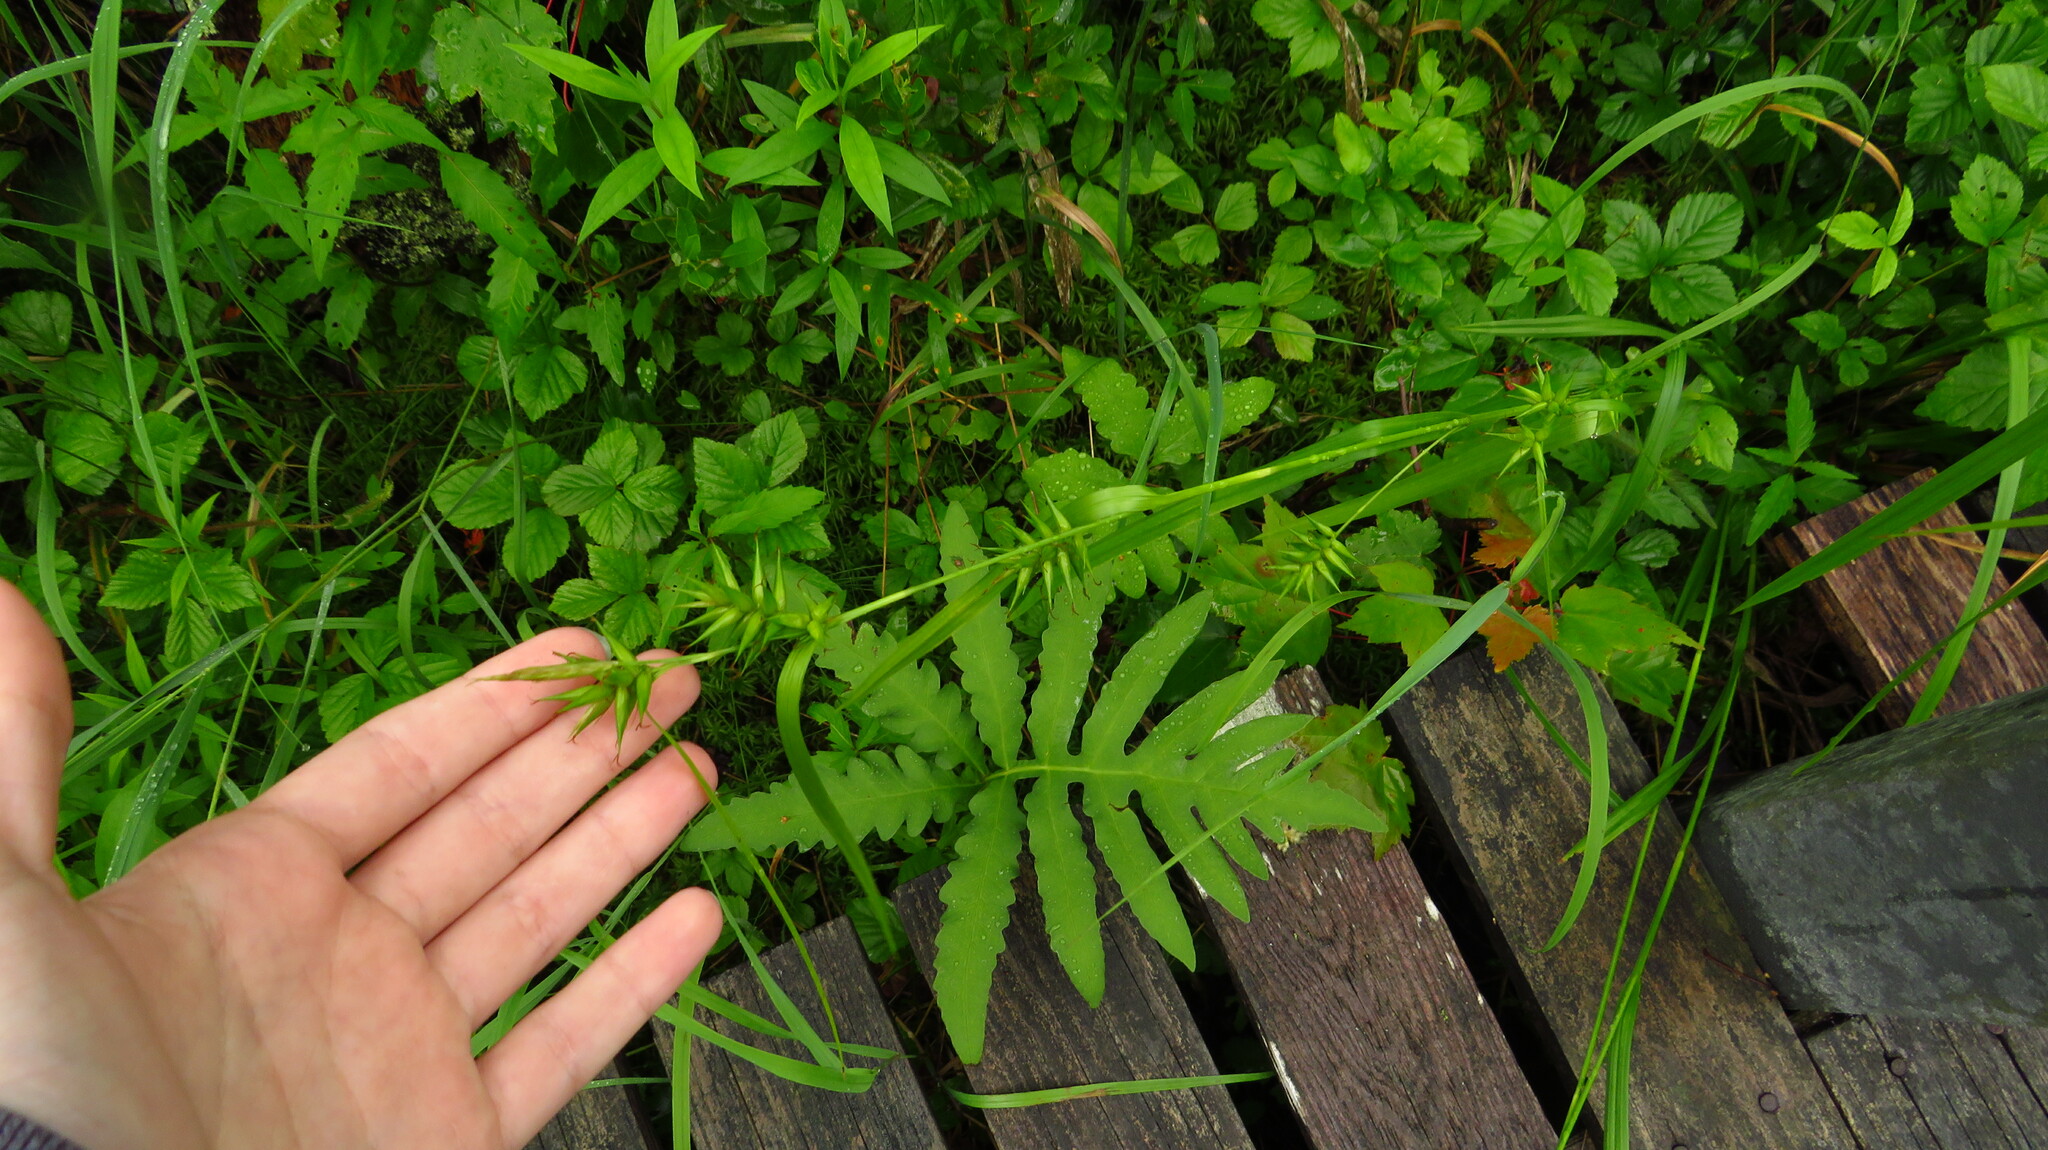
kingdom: Plantae
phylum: Tracheophyta
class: Polypodiopsida
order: Polypodiales
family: Onocleaceae
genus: Onoclea
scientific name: Onoclea sensibilis
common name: Sensitive fern
